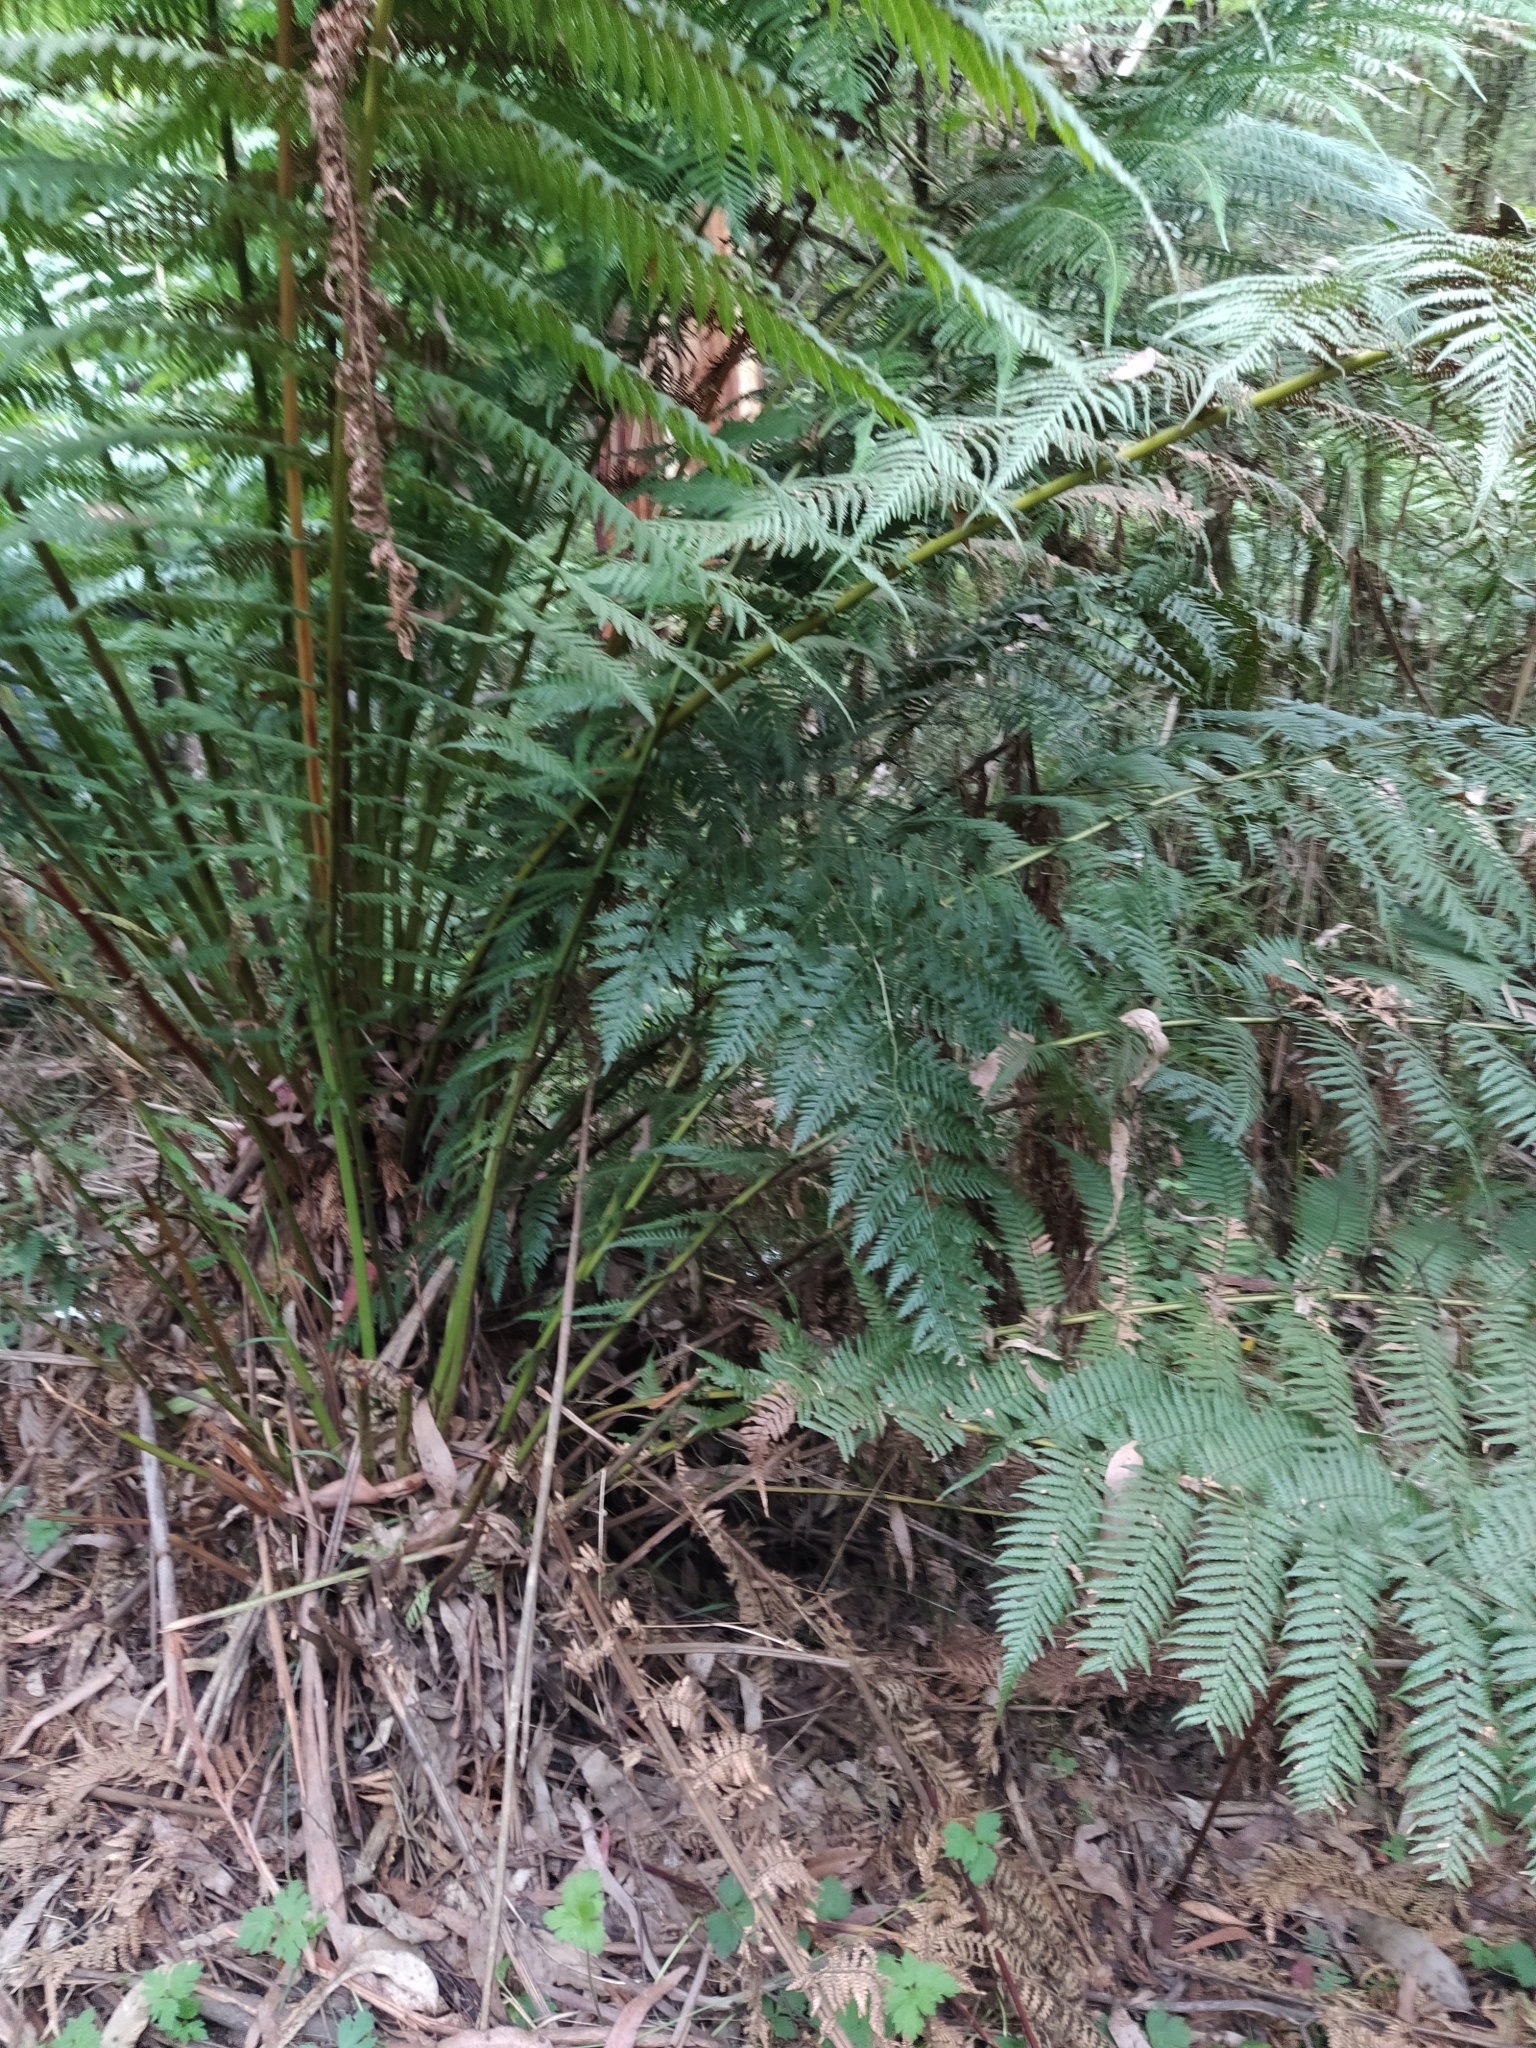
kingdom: Plantae
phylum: Tracheophyta
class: Polypodiopsida
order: Cyatheales
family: Dicksoniaceae
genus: Dicksonia
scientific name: Dicksonia antarctica
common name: Australian treefern
